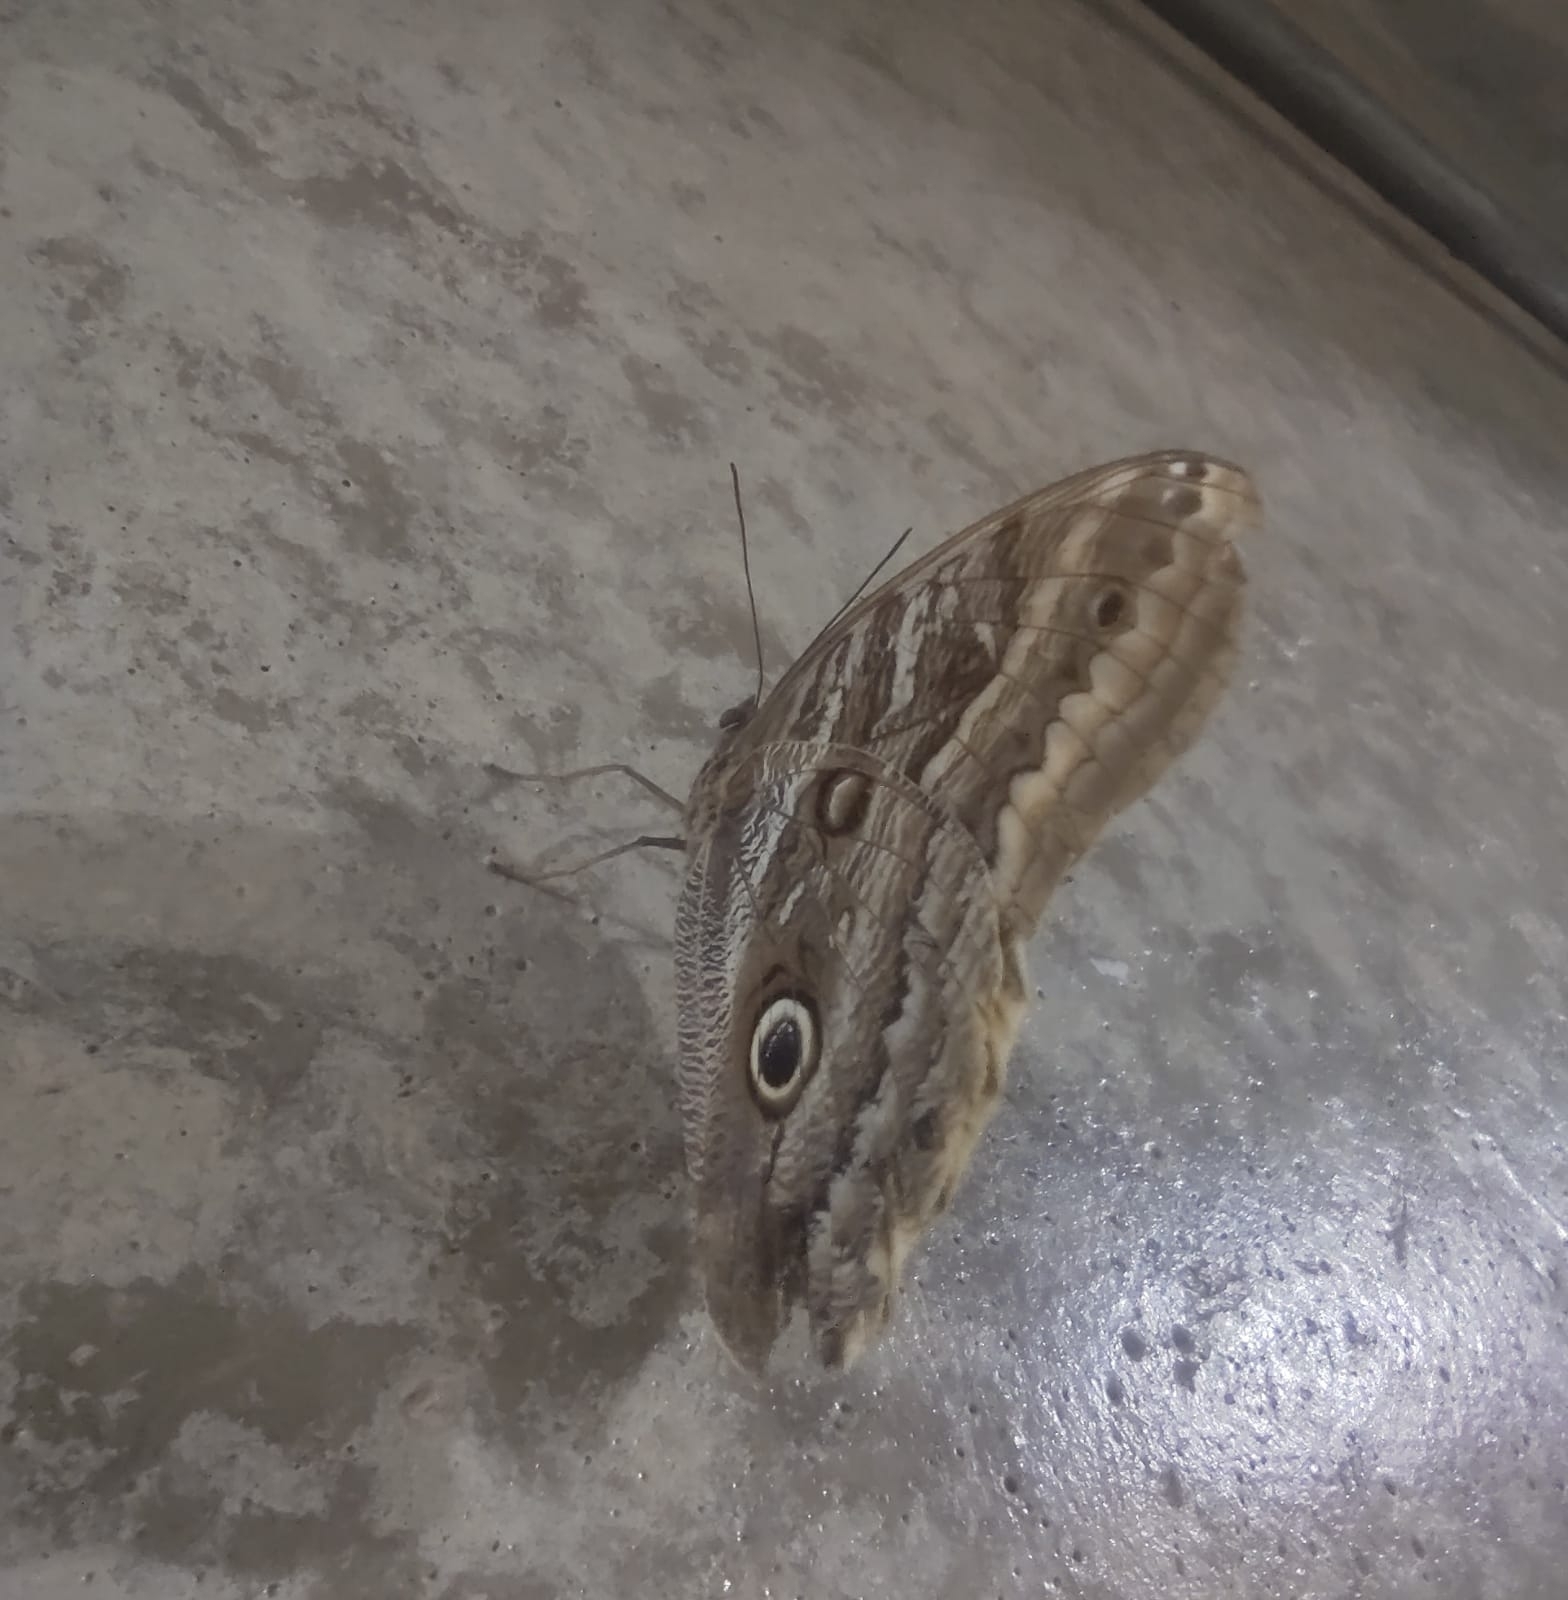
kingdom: Animalia
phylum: Arthropoda
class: Insecta
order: Lepidoptera
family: Nymphalidae
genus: Caligo
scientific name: Caligo illioneus
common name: Dusky owl-butterfly
